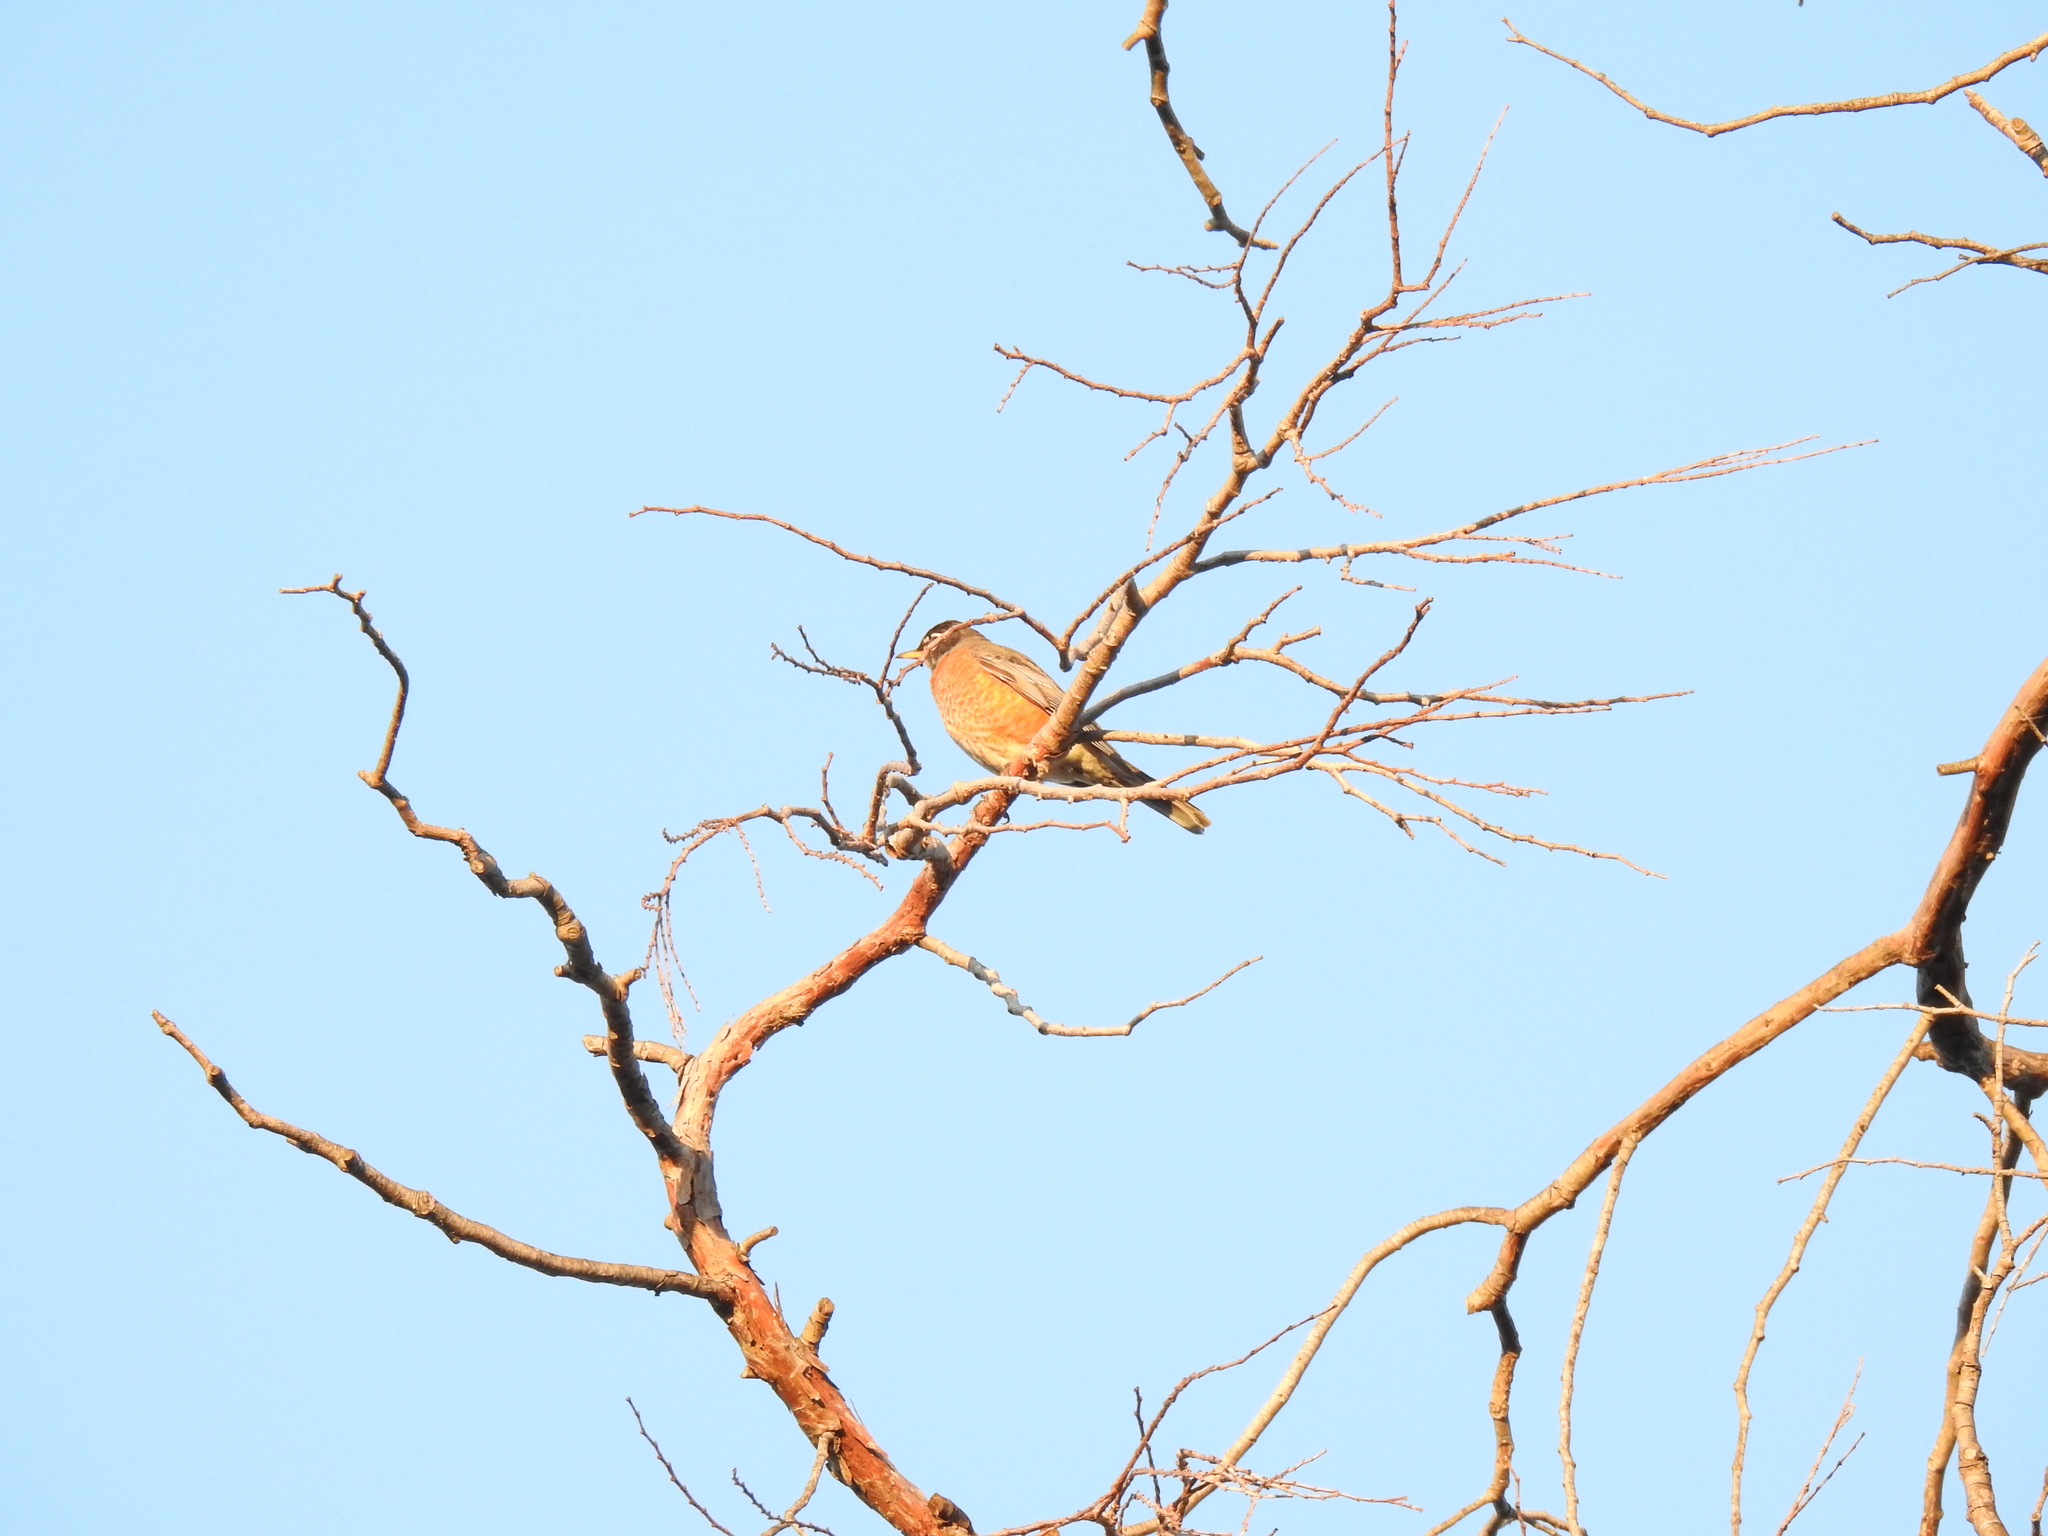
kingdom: Animalia
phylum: Chordata
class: Aves
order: Passeriformes
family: Turdidae
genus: Turdus
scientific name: Turdus migratorius
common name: American robin
